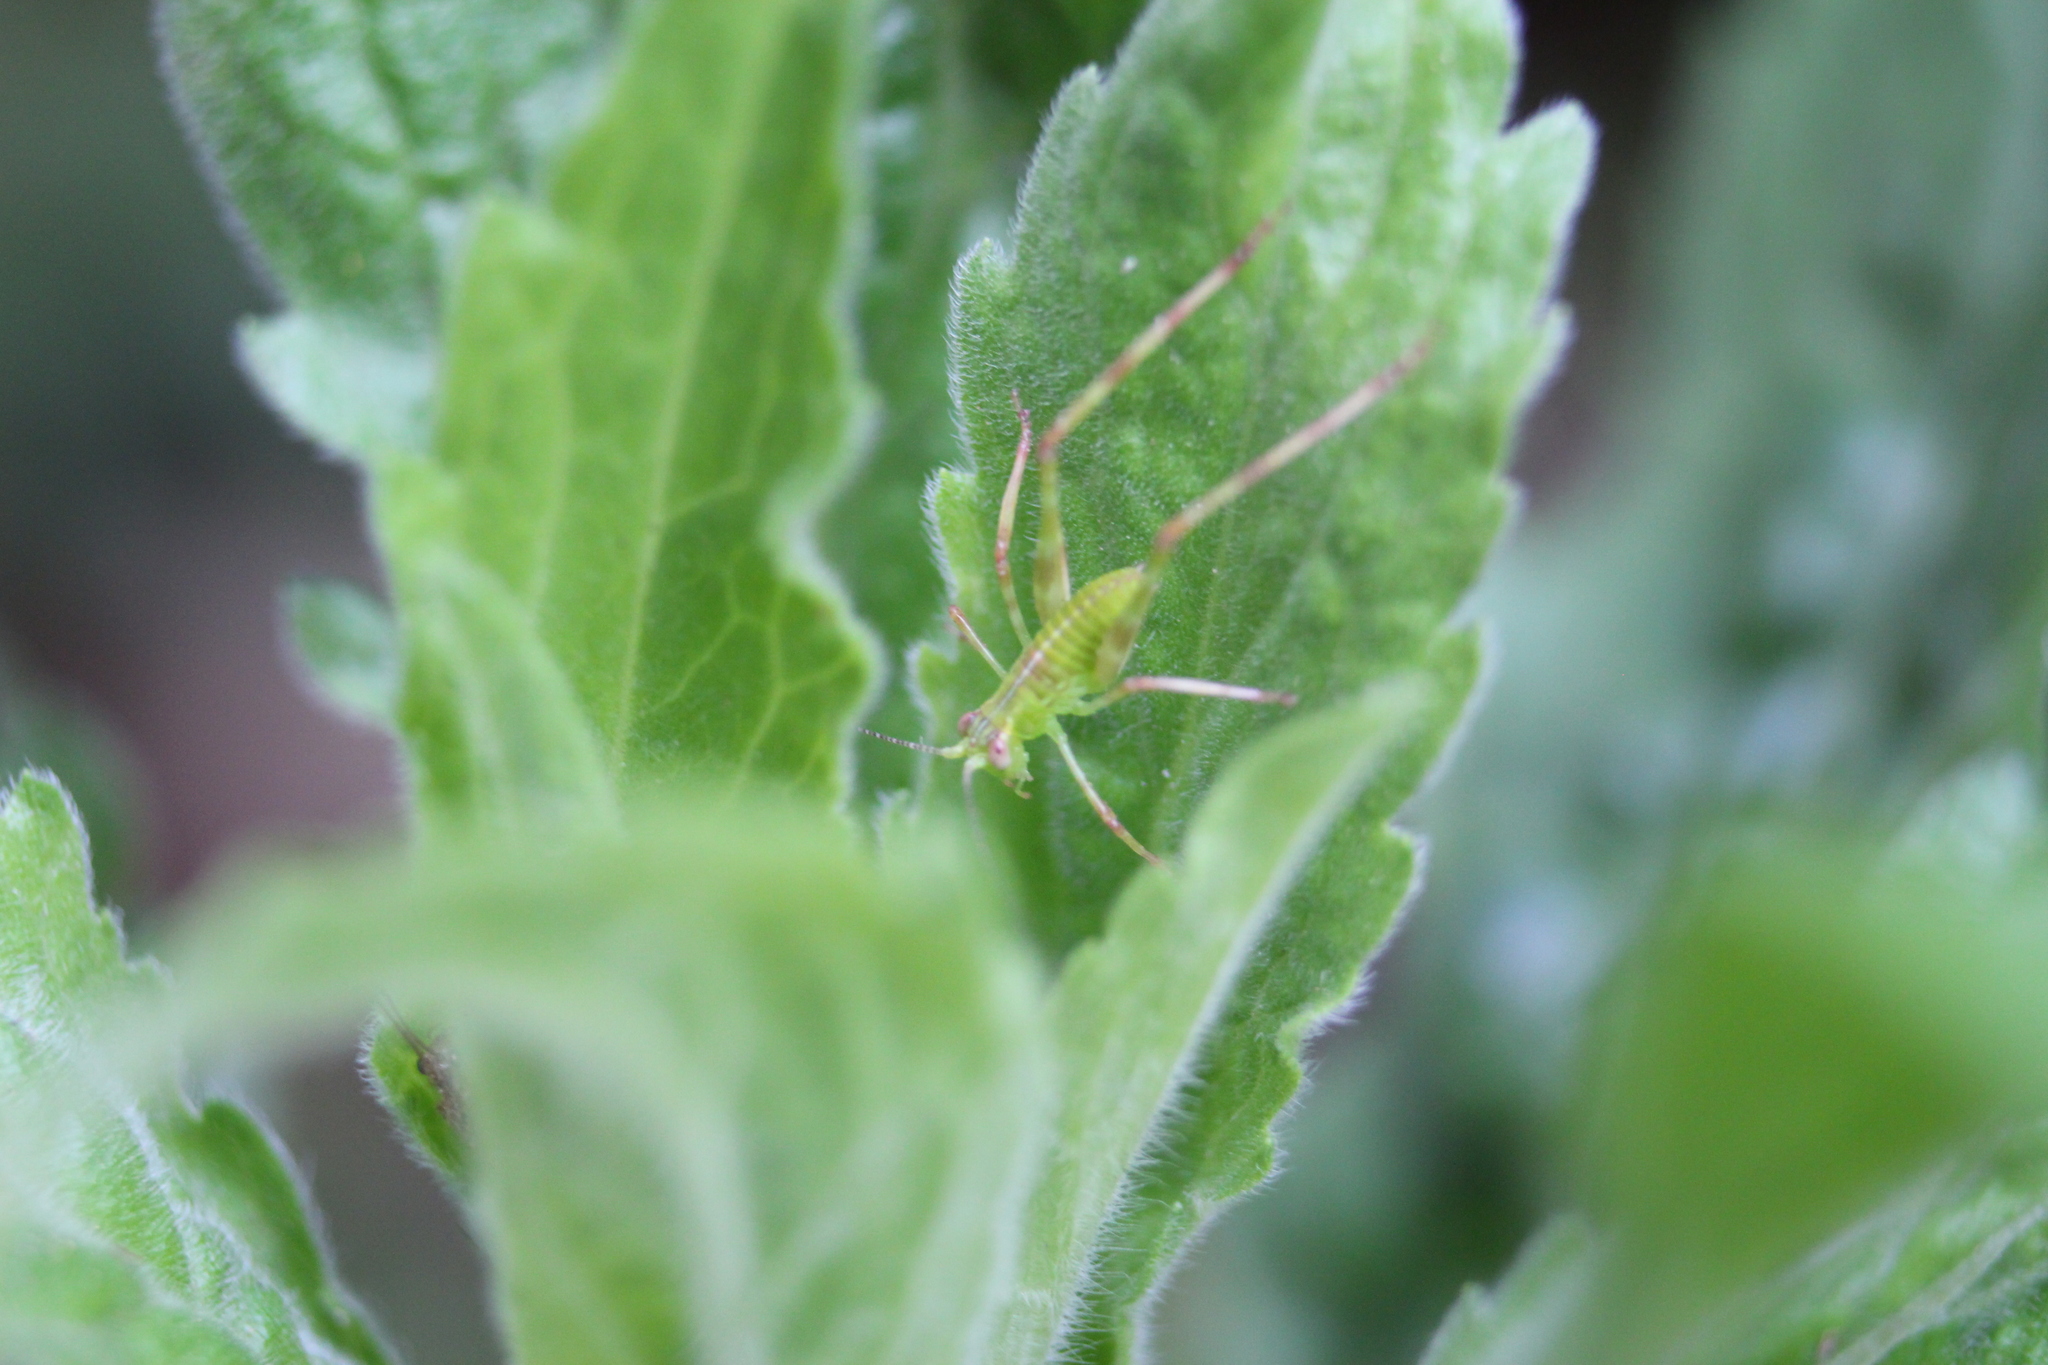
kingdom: Animalia
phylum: Arthropoda
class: Insecta
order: Orthoptera
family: Tettigoniidae
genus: Caedicia
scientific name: Caedicia simplex
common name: Common garden katydid
